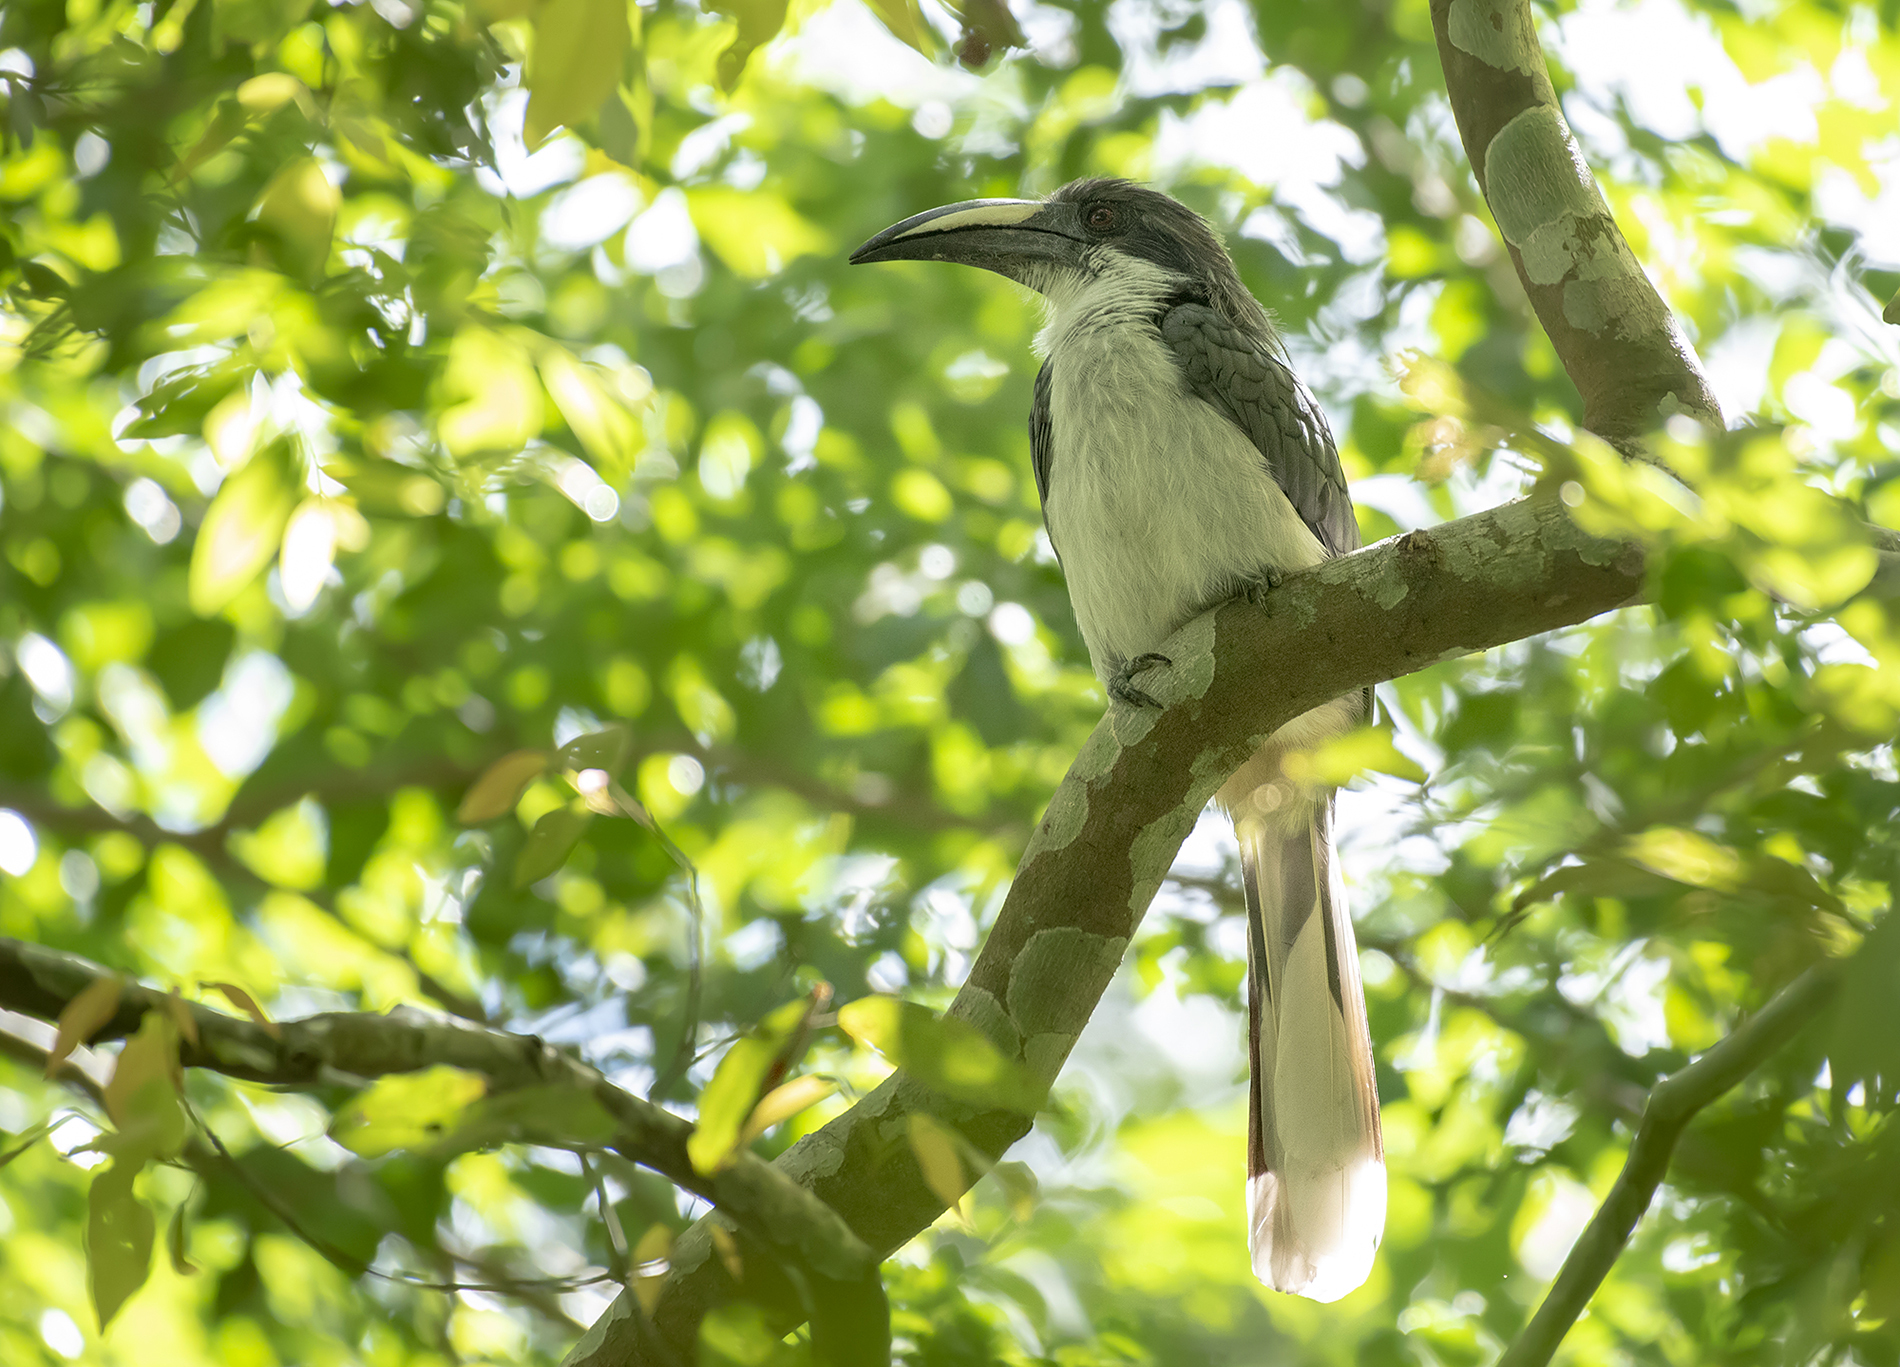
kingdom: Animalia
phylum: Chordata
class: Aves
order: Bucerotiformes
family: Bucerotidae
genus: Ocyceros
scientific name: Ocyceros gingalensis
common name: Sri lanka grey hornbill
